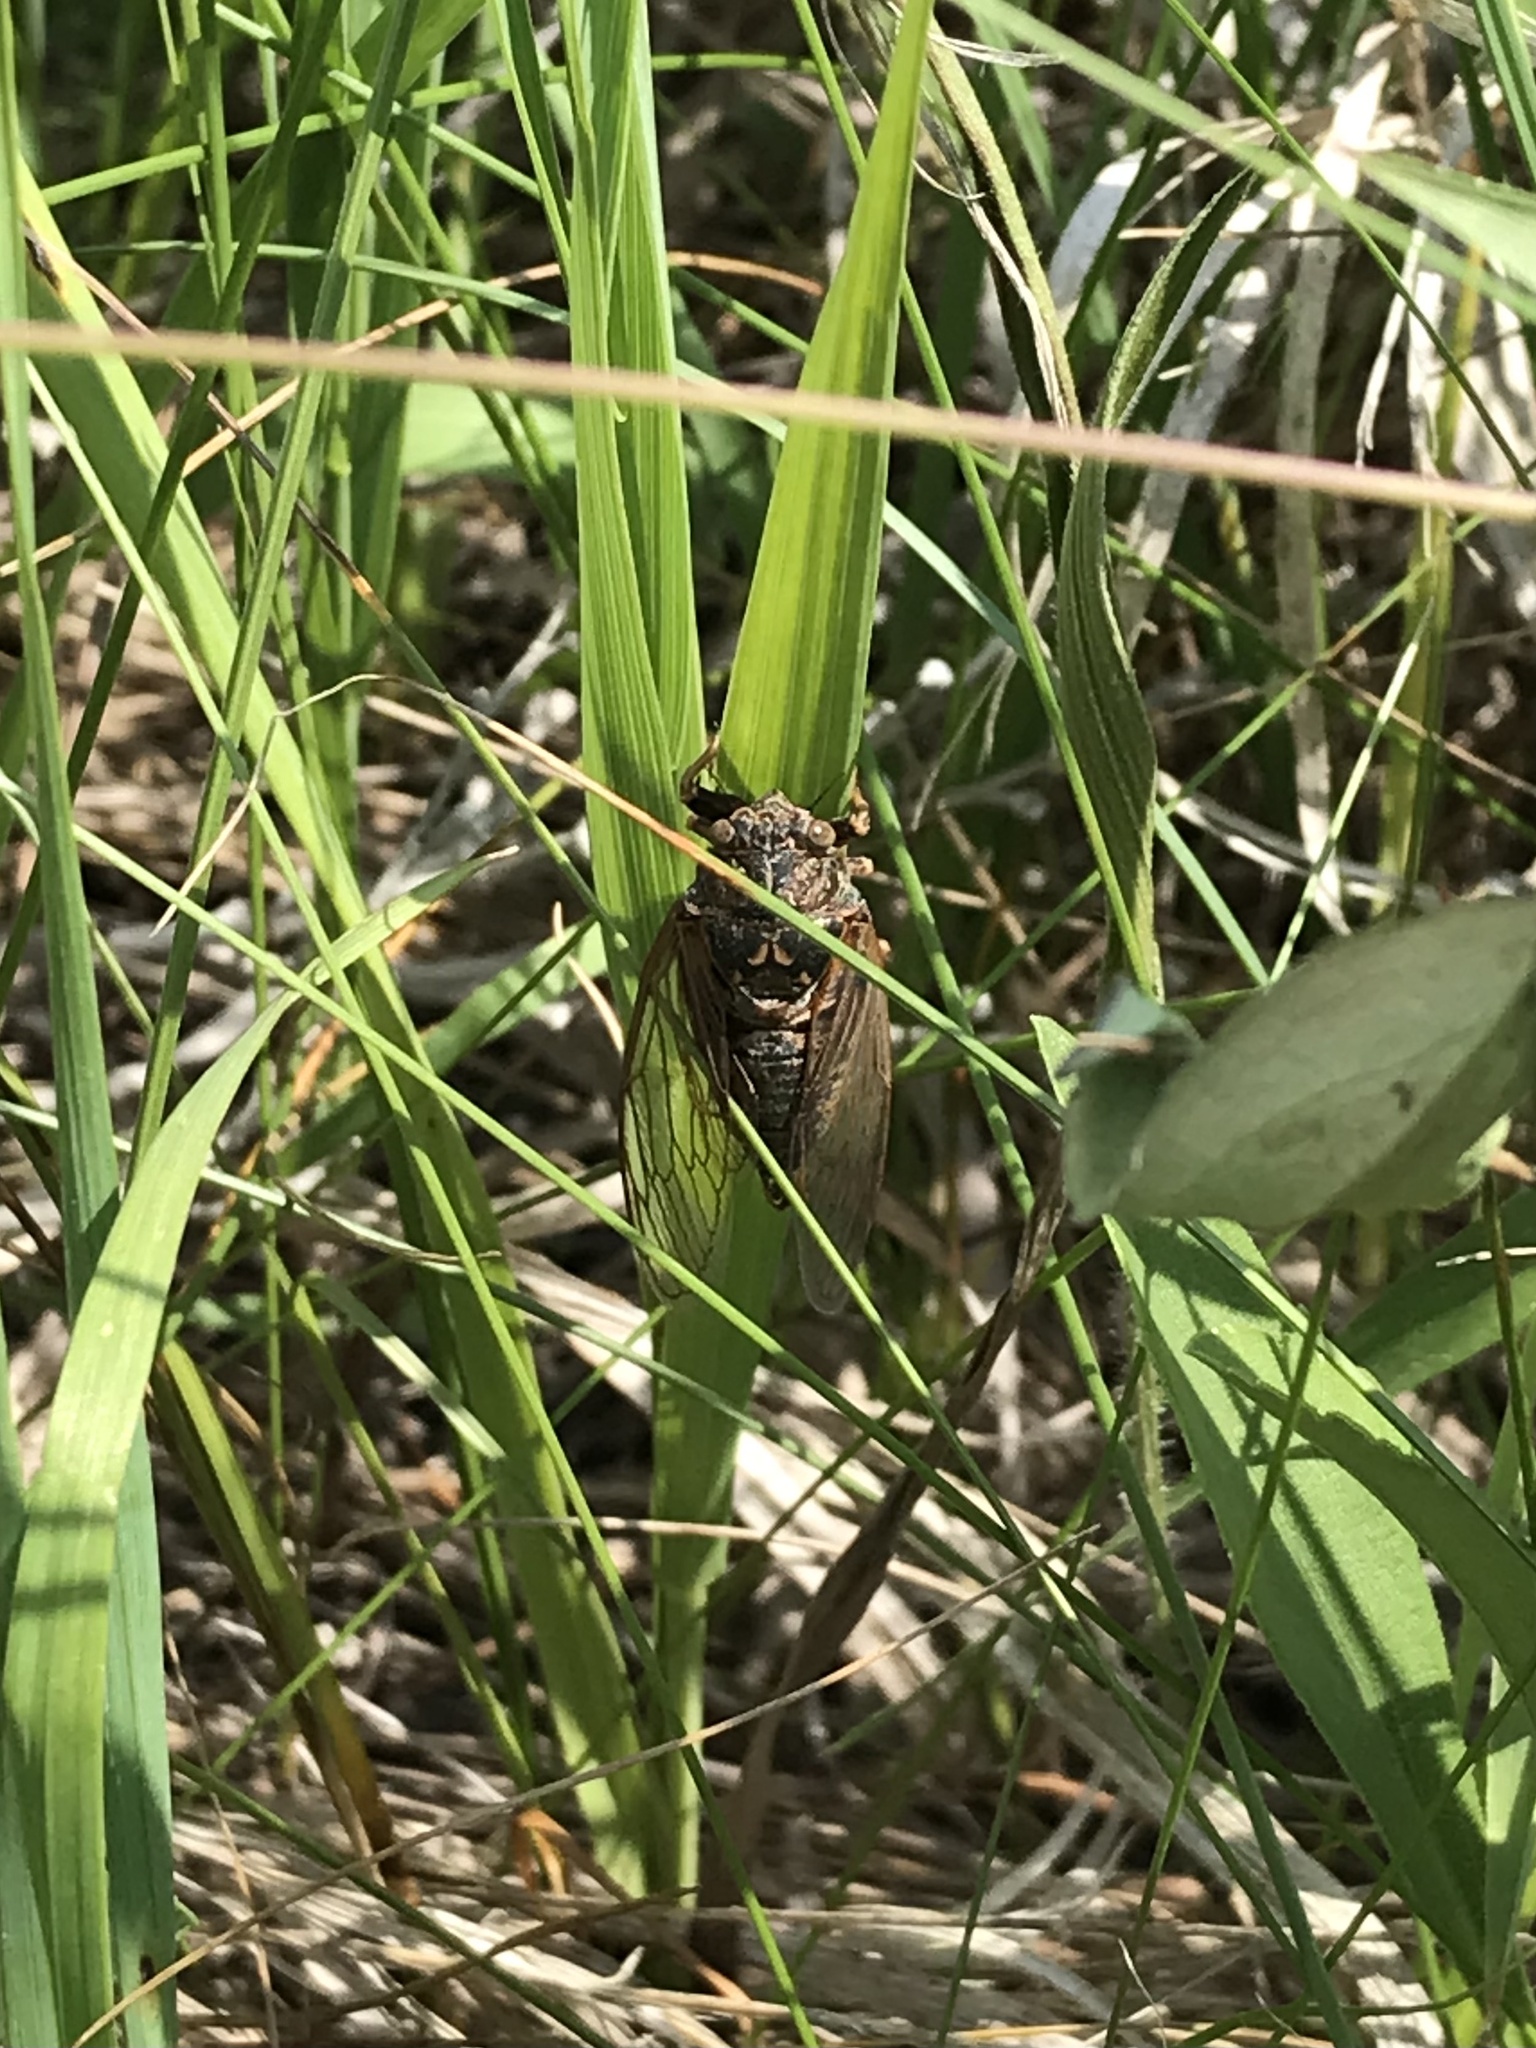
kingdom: Animalia
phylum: Arthropoda
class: Insecta
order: Hemiptera
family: Cicadidae
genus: Okanagana
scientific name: Okanagana balli
